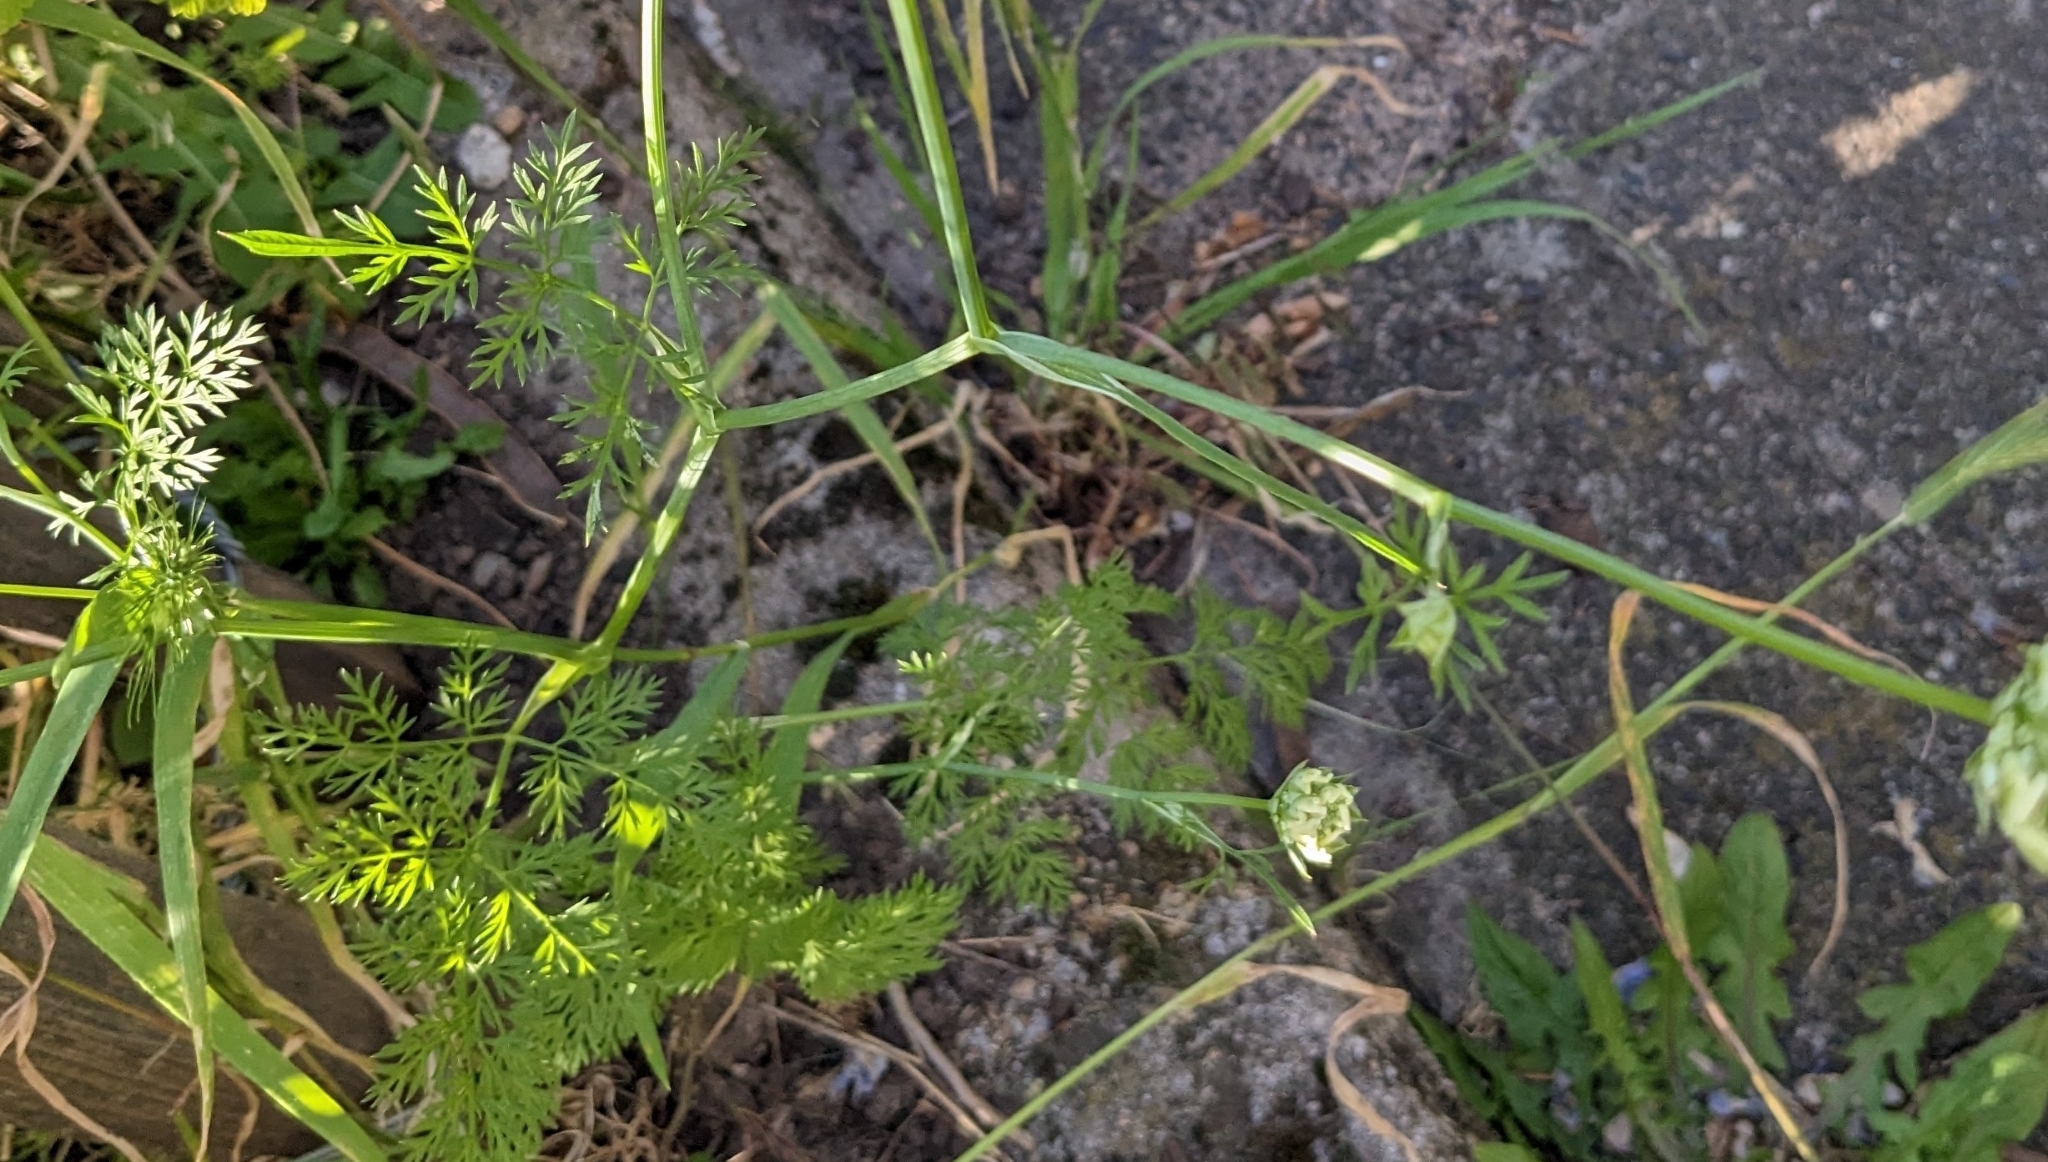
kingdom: Plantae
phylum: Tracheophyta
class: Magnoliopsida
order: Apiales
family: Apiaceae
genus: Orlaya
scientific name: Orlaya grandiflora
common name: White lace flower
